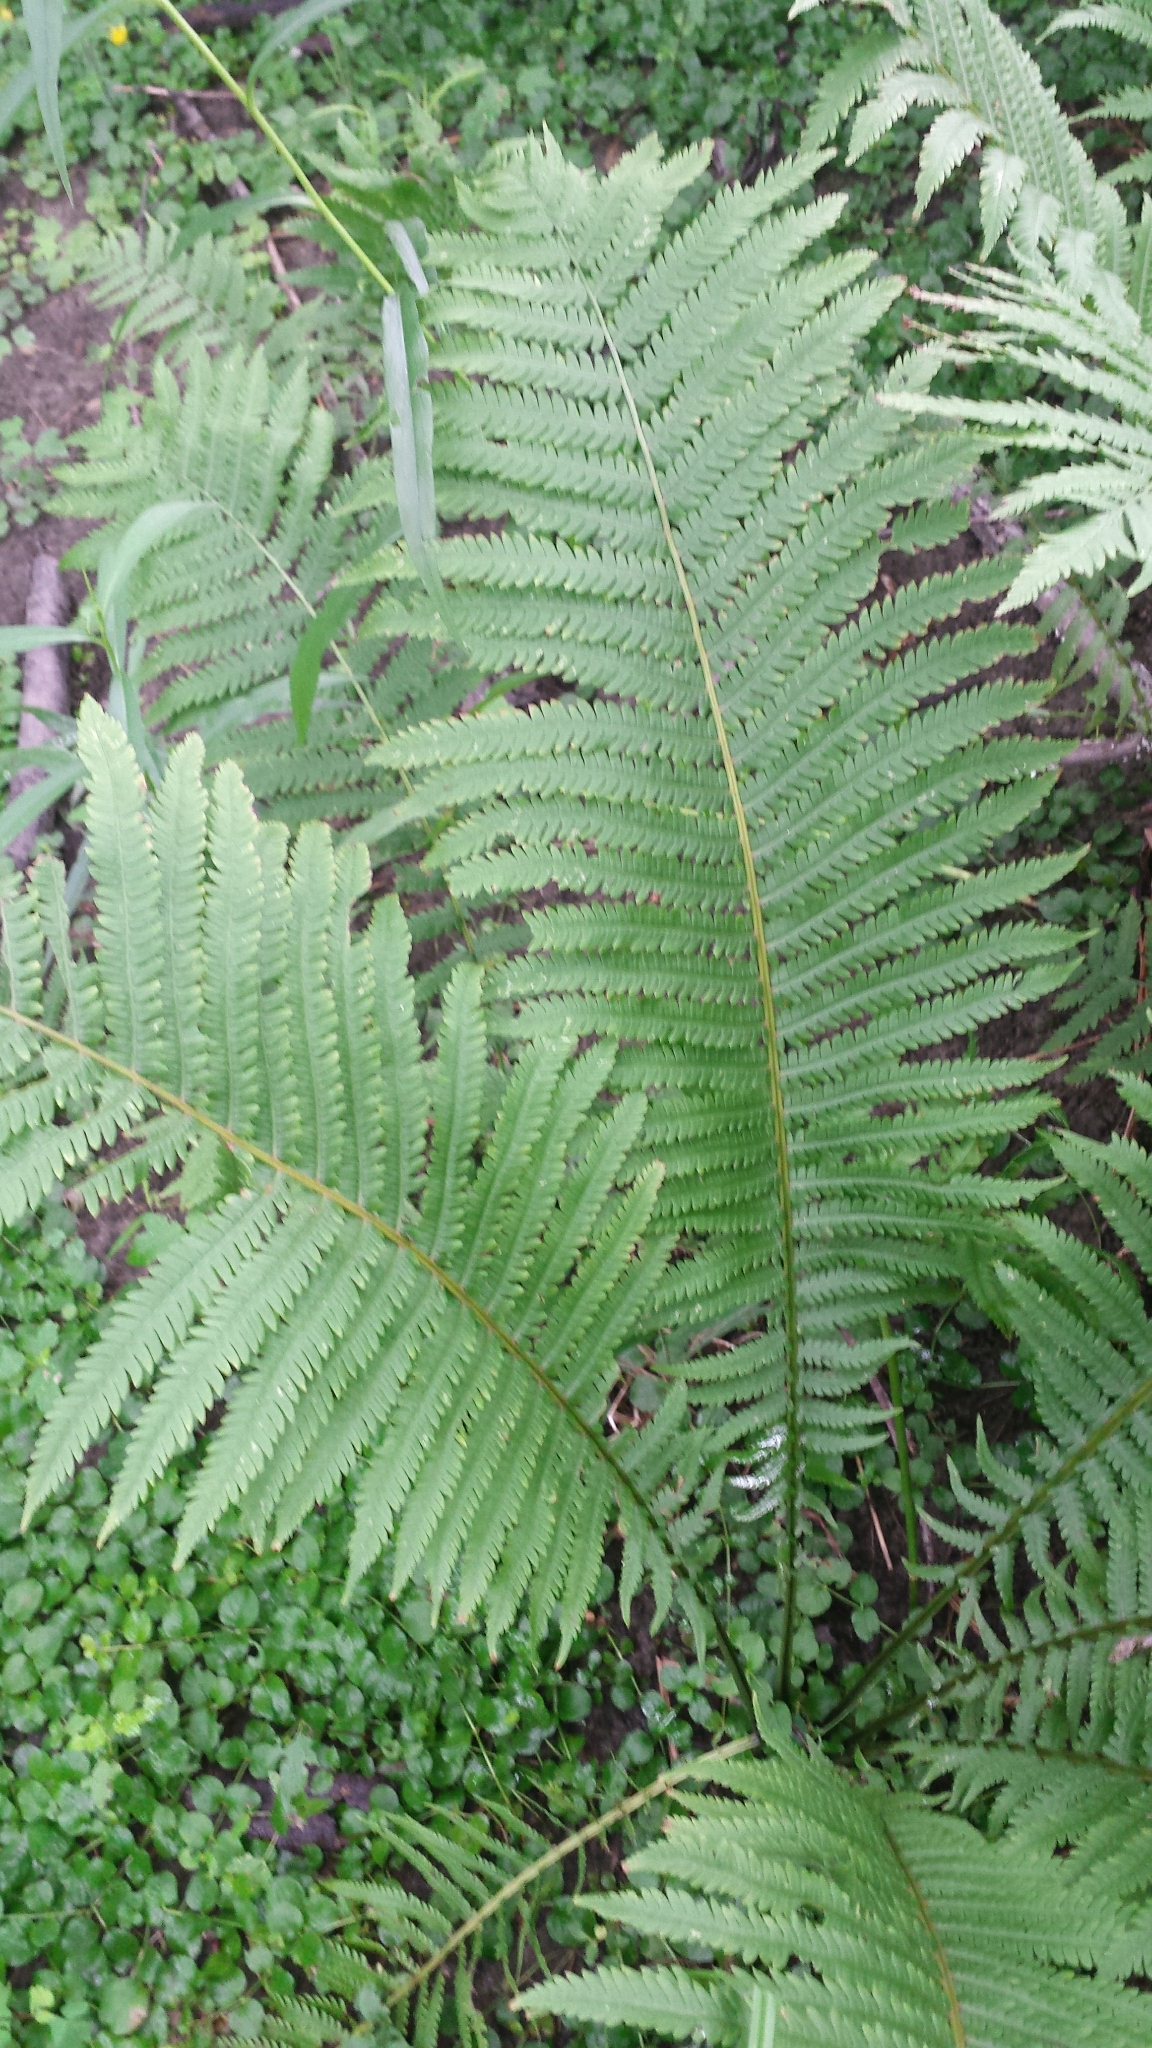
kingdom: Plantae
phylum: Tracheophyta
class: Polypodiopsida
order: Polypodiales
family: Onocleaceae
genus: Matteuccia
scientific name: Matteuccia struthiopteris
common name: Ostrich fern
